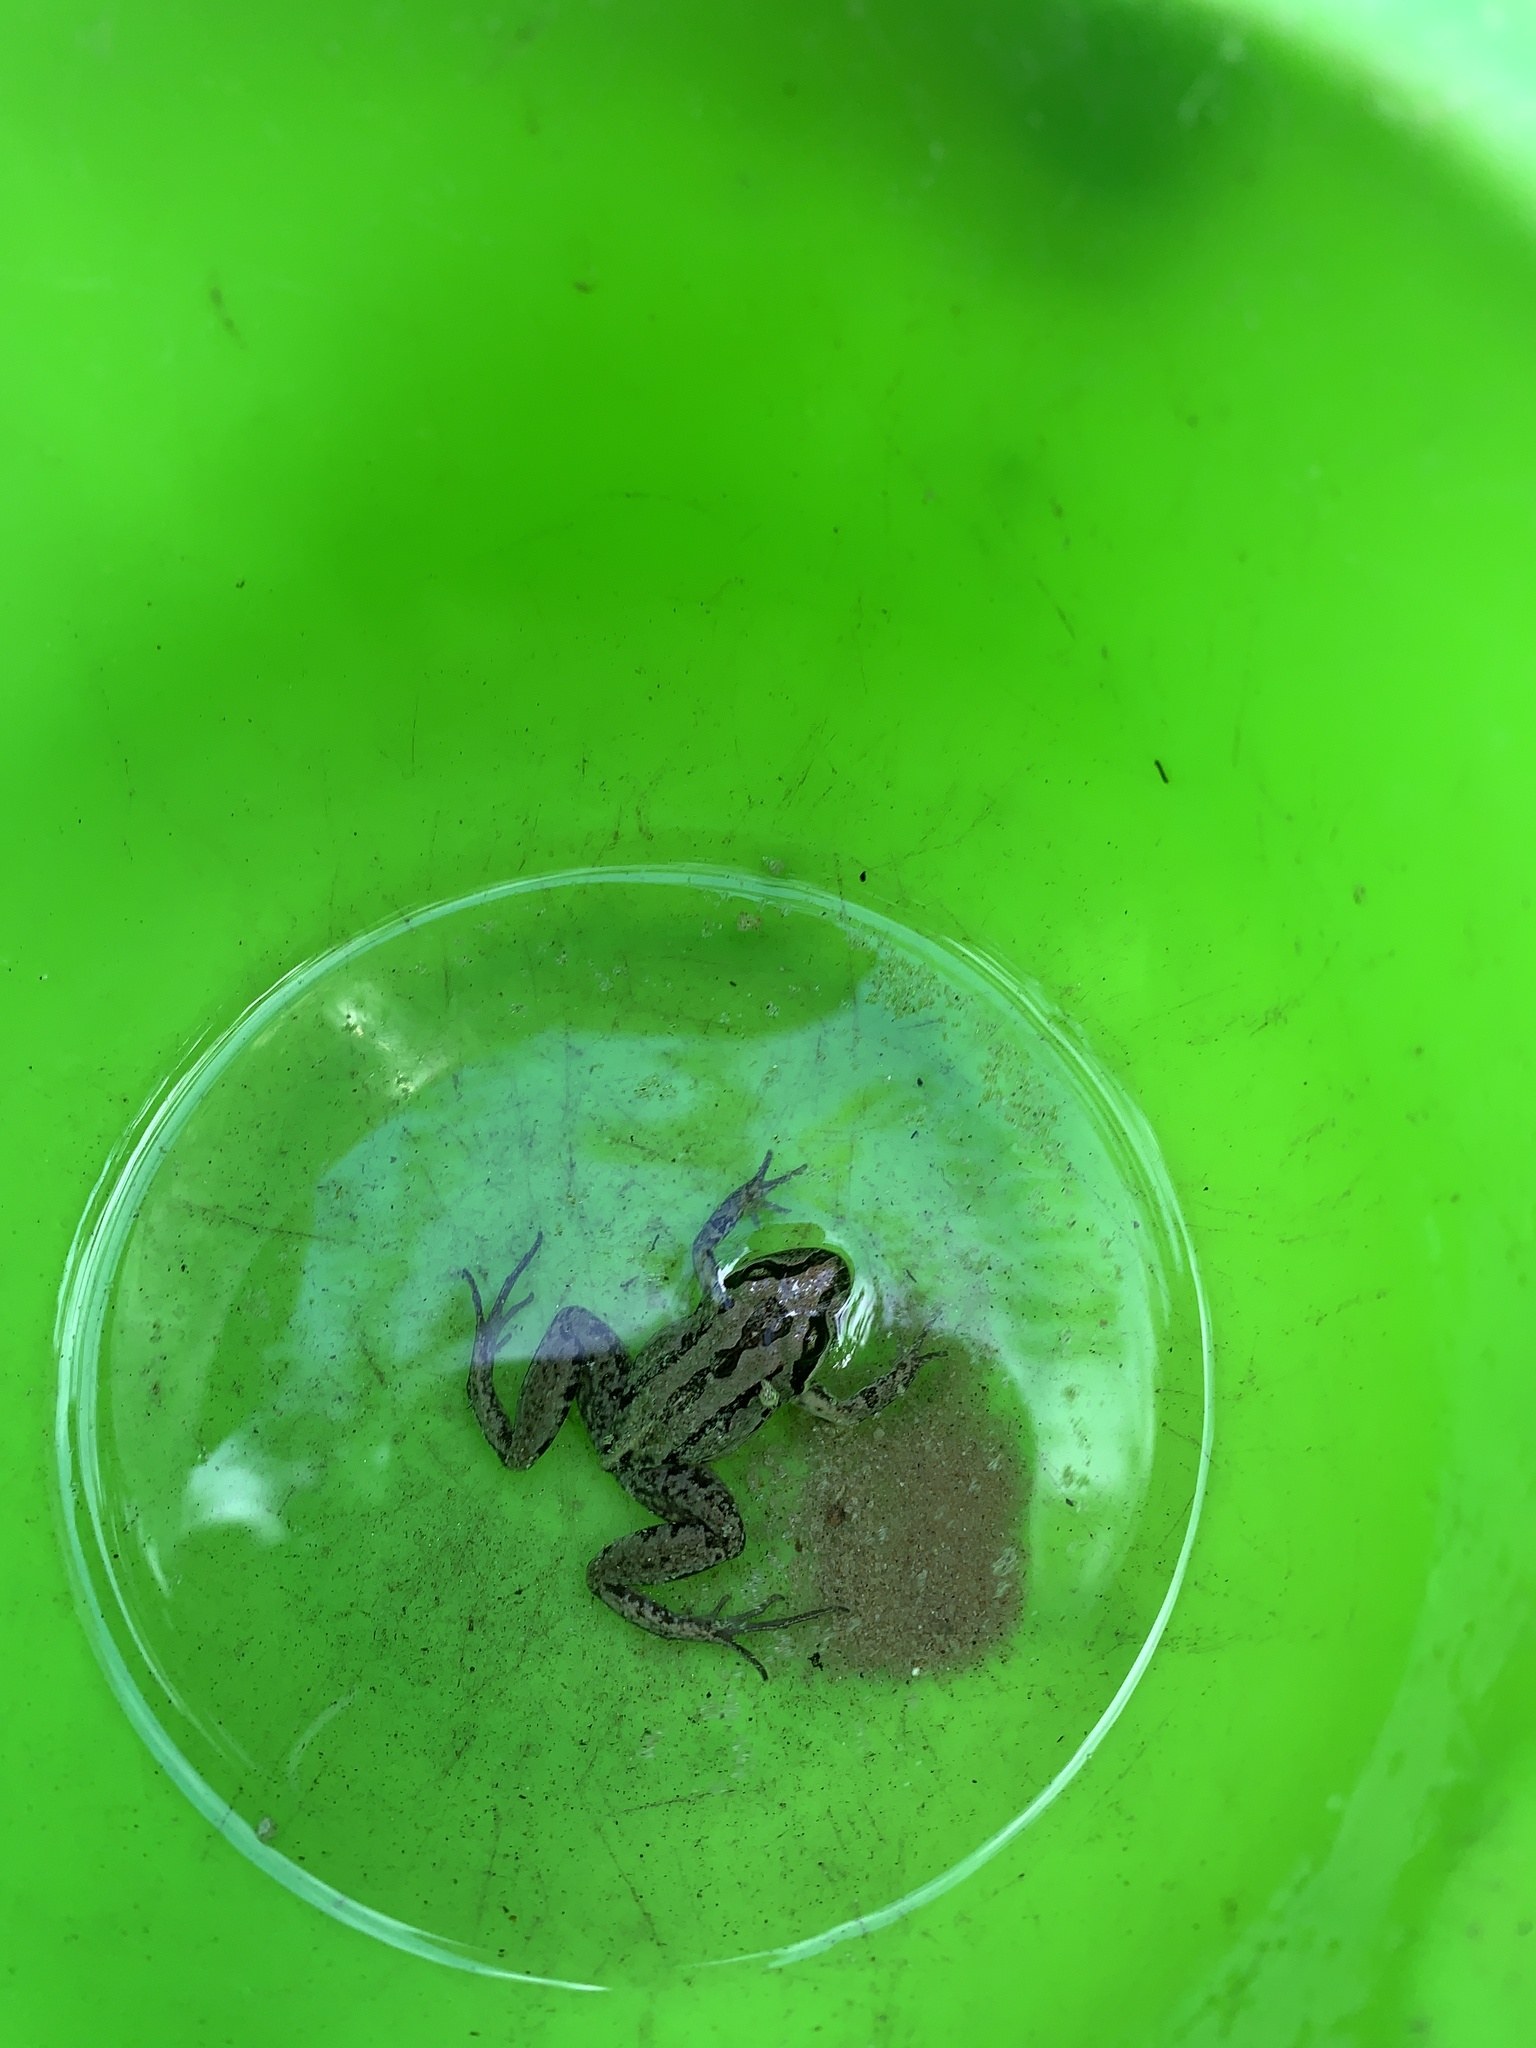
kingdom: Animalia
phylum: Chordata
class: Amphibia
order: Anura
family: Limnodynastidae
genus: Limnodynastes
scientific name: Limnodynastes peronii
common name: Brown frog
